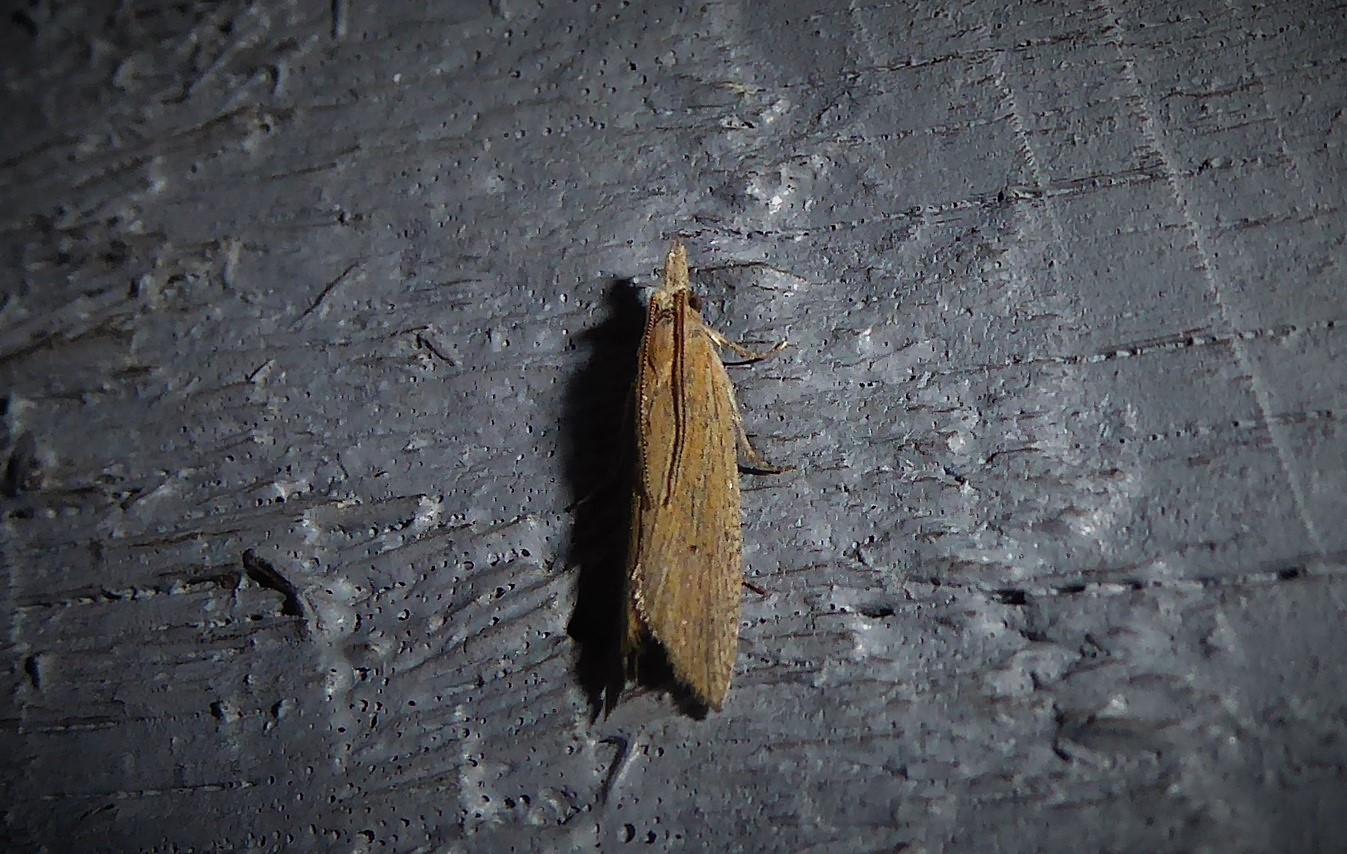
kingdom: Animalia
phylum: Arthropoda
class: Insecta
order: Lepidoptera
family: Tortricidae
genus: Bactra
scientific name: Bactra noteraula
